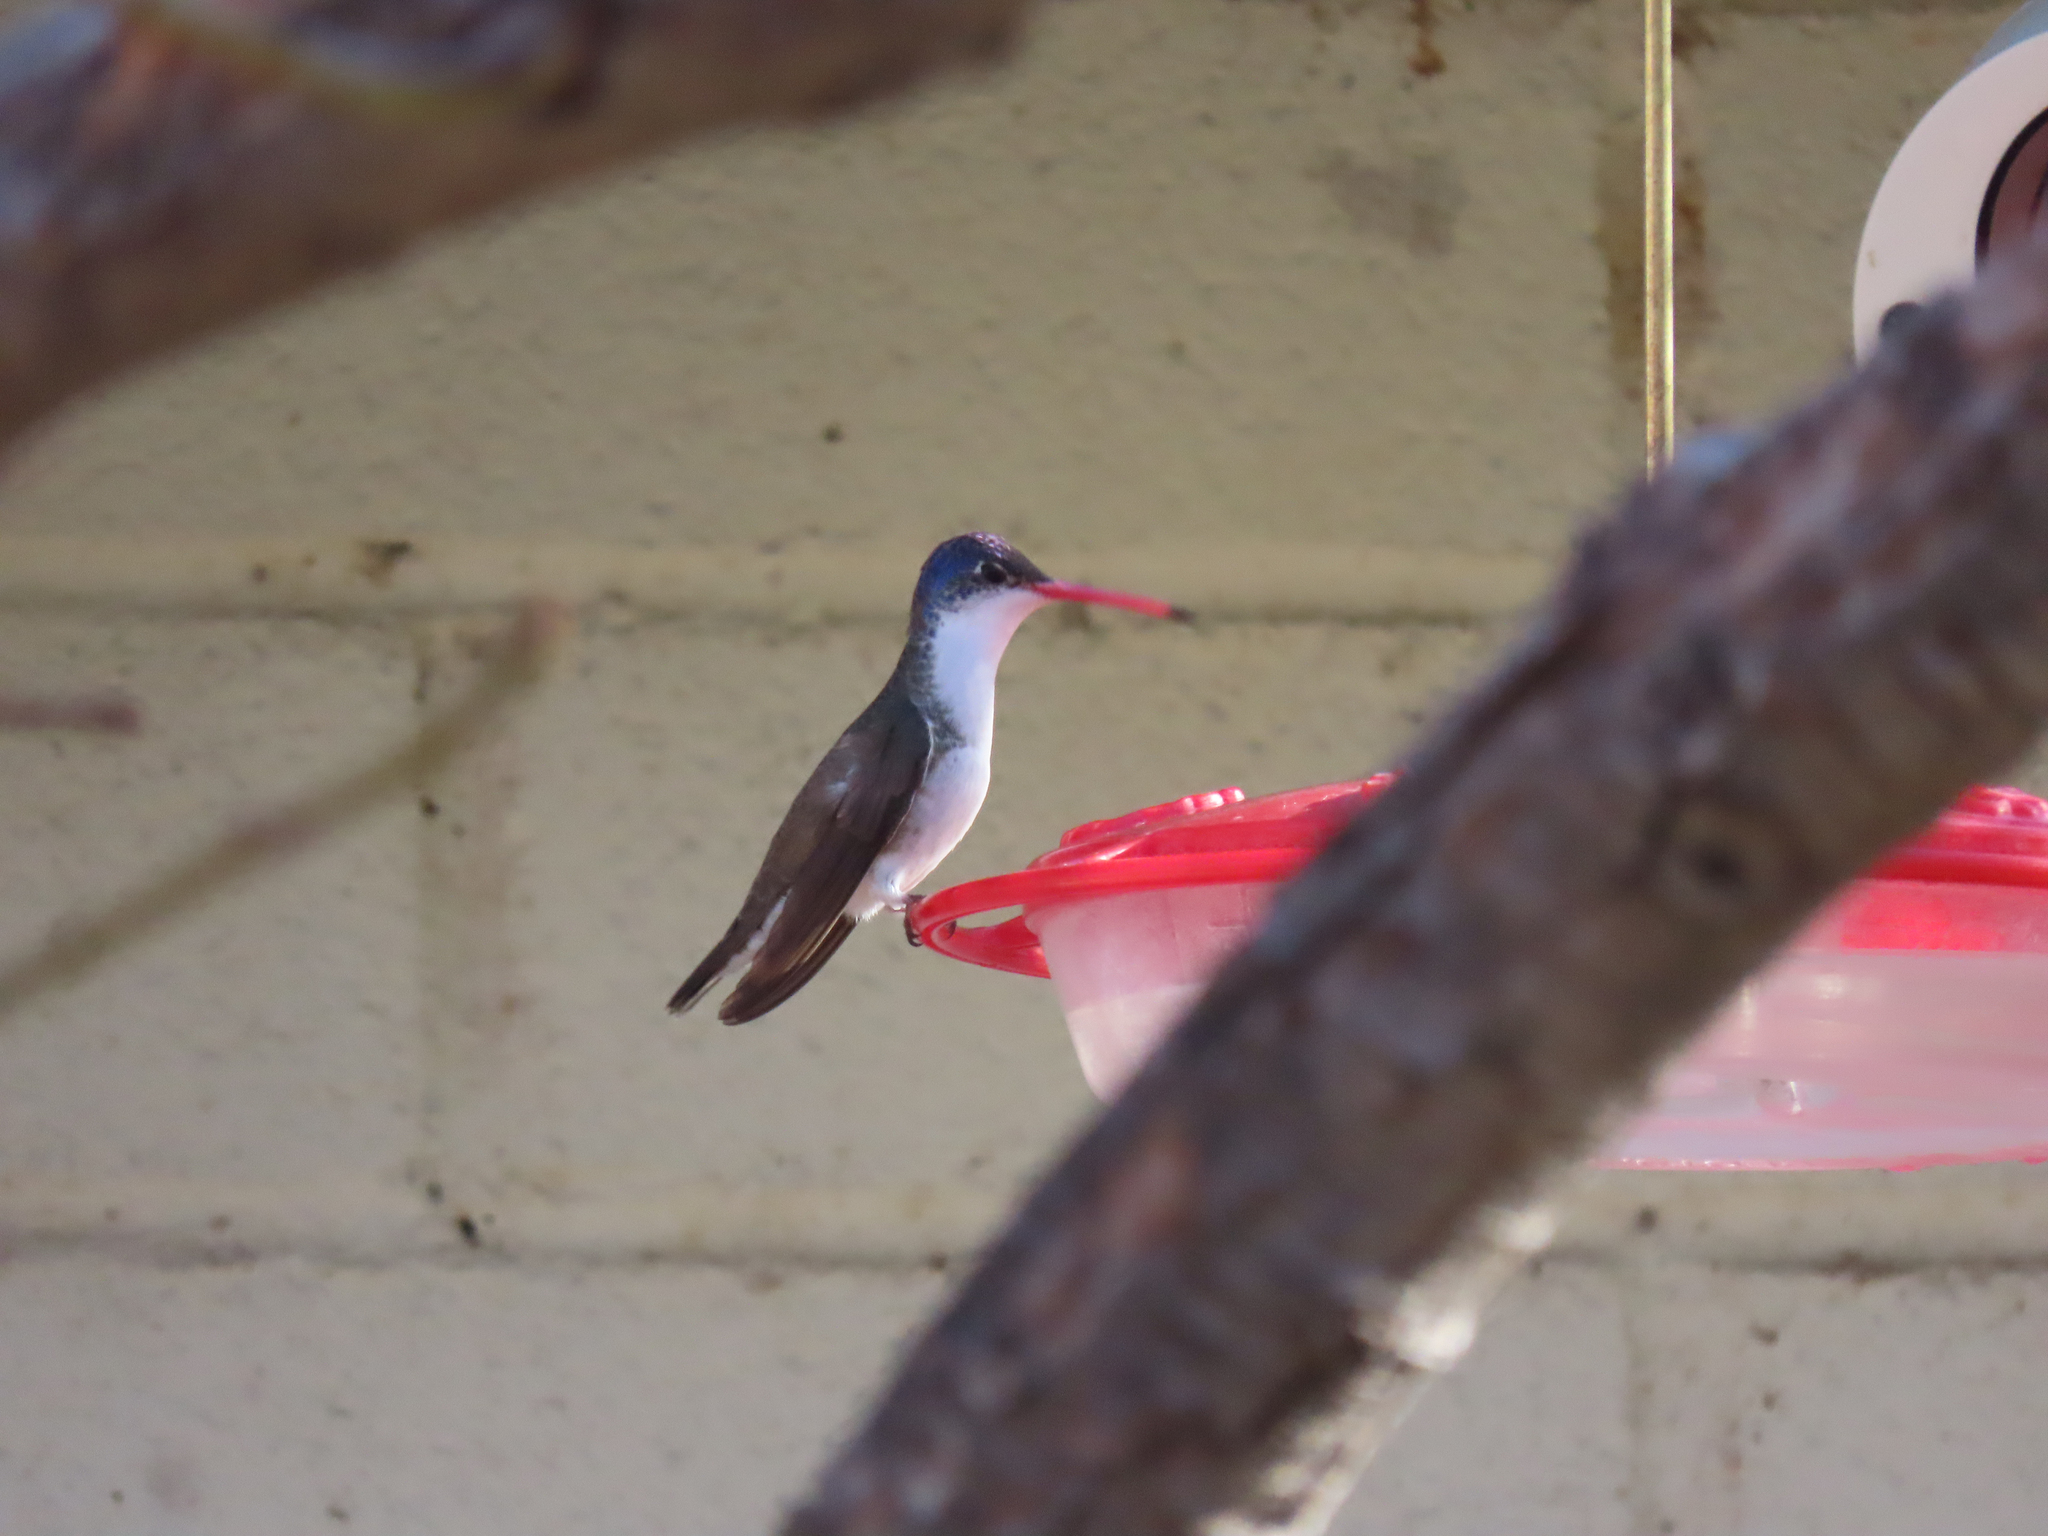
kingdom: Animalia
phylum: Chordata
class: Aves
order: Apodiformes
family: Trochilidae
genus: Leucolia
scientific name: Leucolia violiceps
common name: Violet-crowned hummingbird
